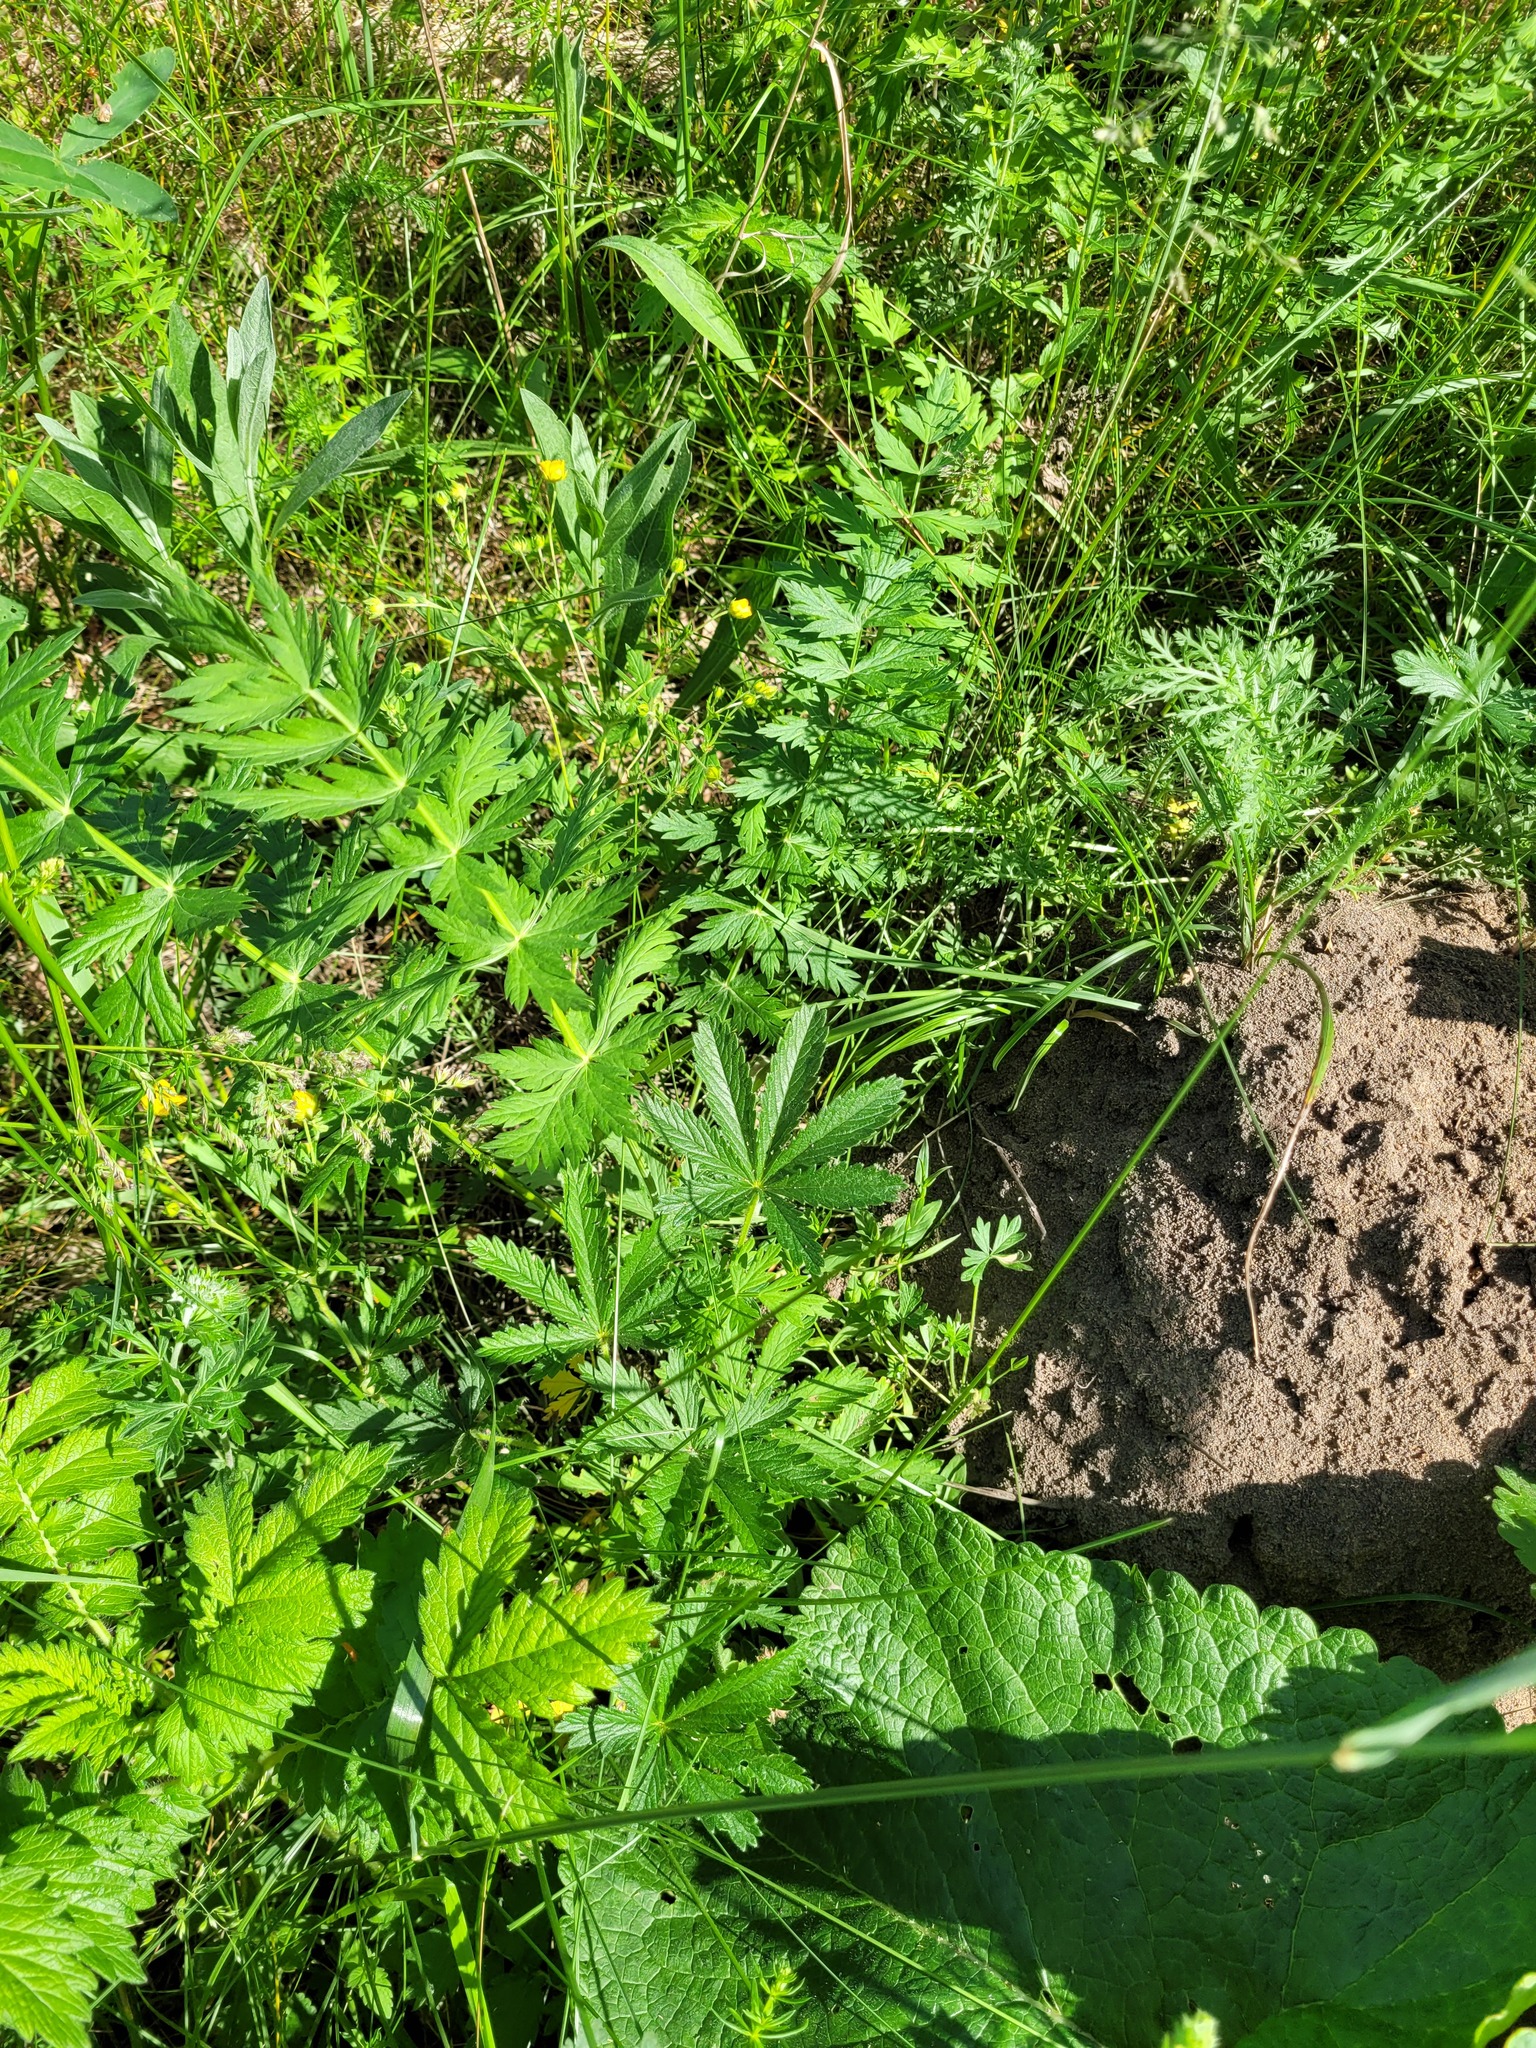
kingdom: Plantae
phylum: Tracheophyta
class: Magnoliopsida
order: Rosales
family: Rosaceae
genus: Potentilla
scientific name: Potentilla thuringiaca
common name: European cinquefoil
